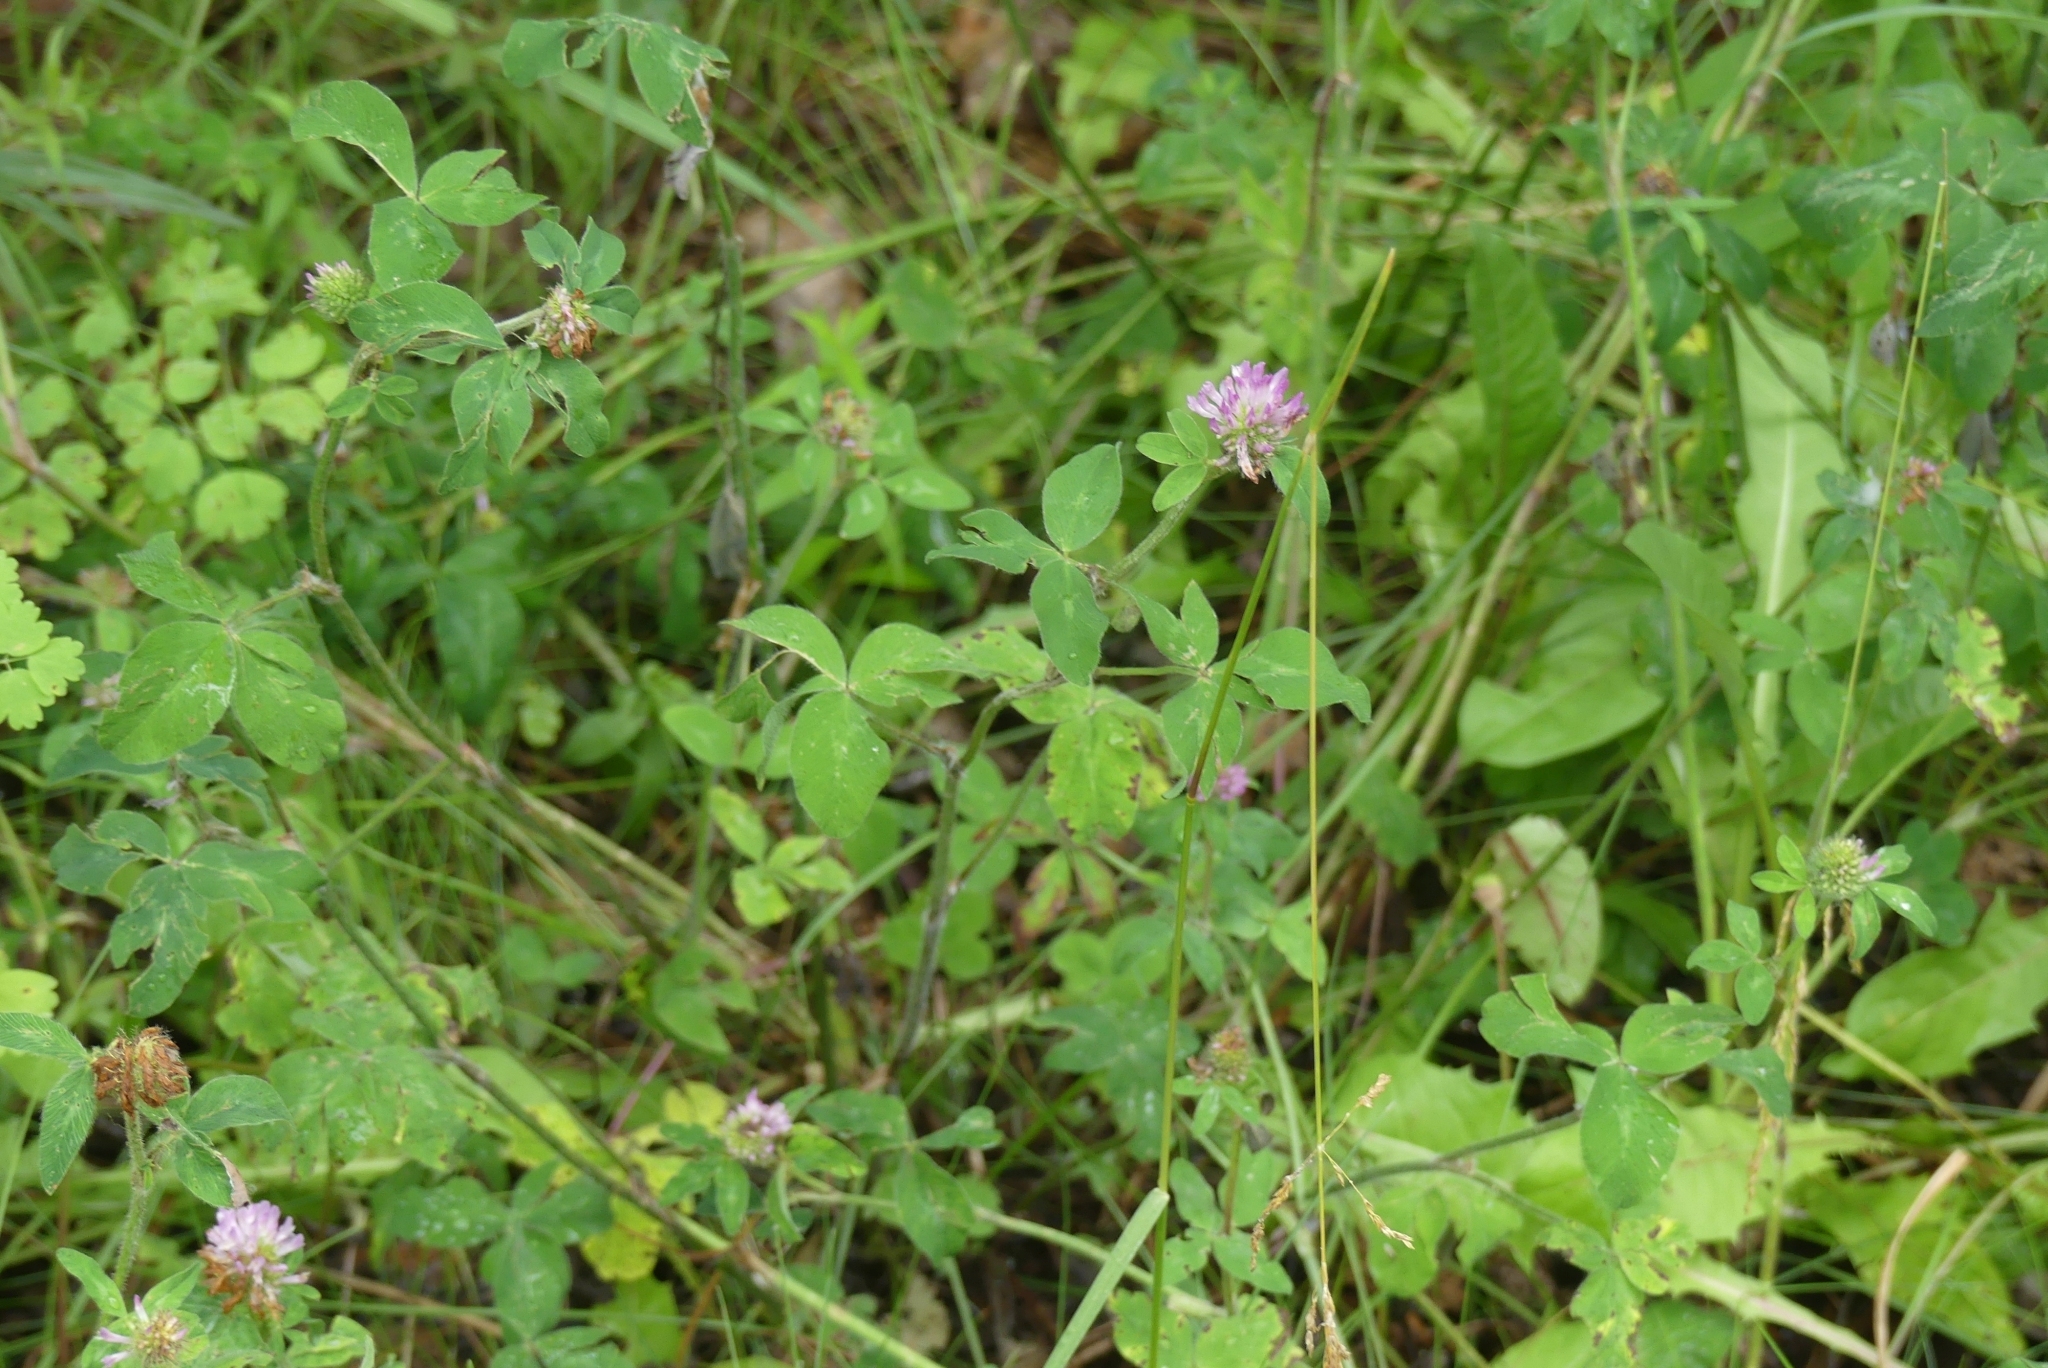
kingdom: Plantae
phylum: Tracheophyta
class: Magnoliopsida
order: Fabales
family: Fabaceae
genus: Trifolium
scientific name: Trifolium pratense
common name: Red clover
